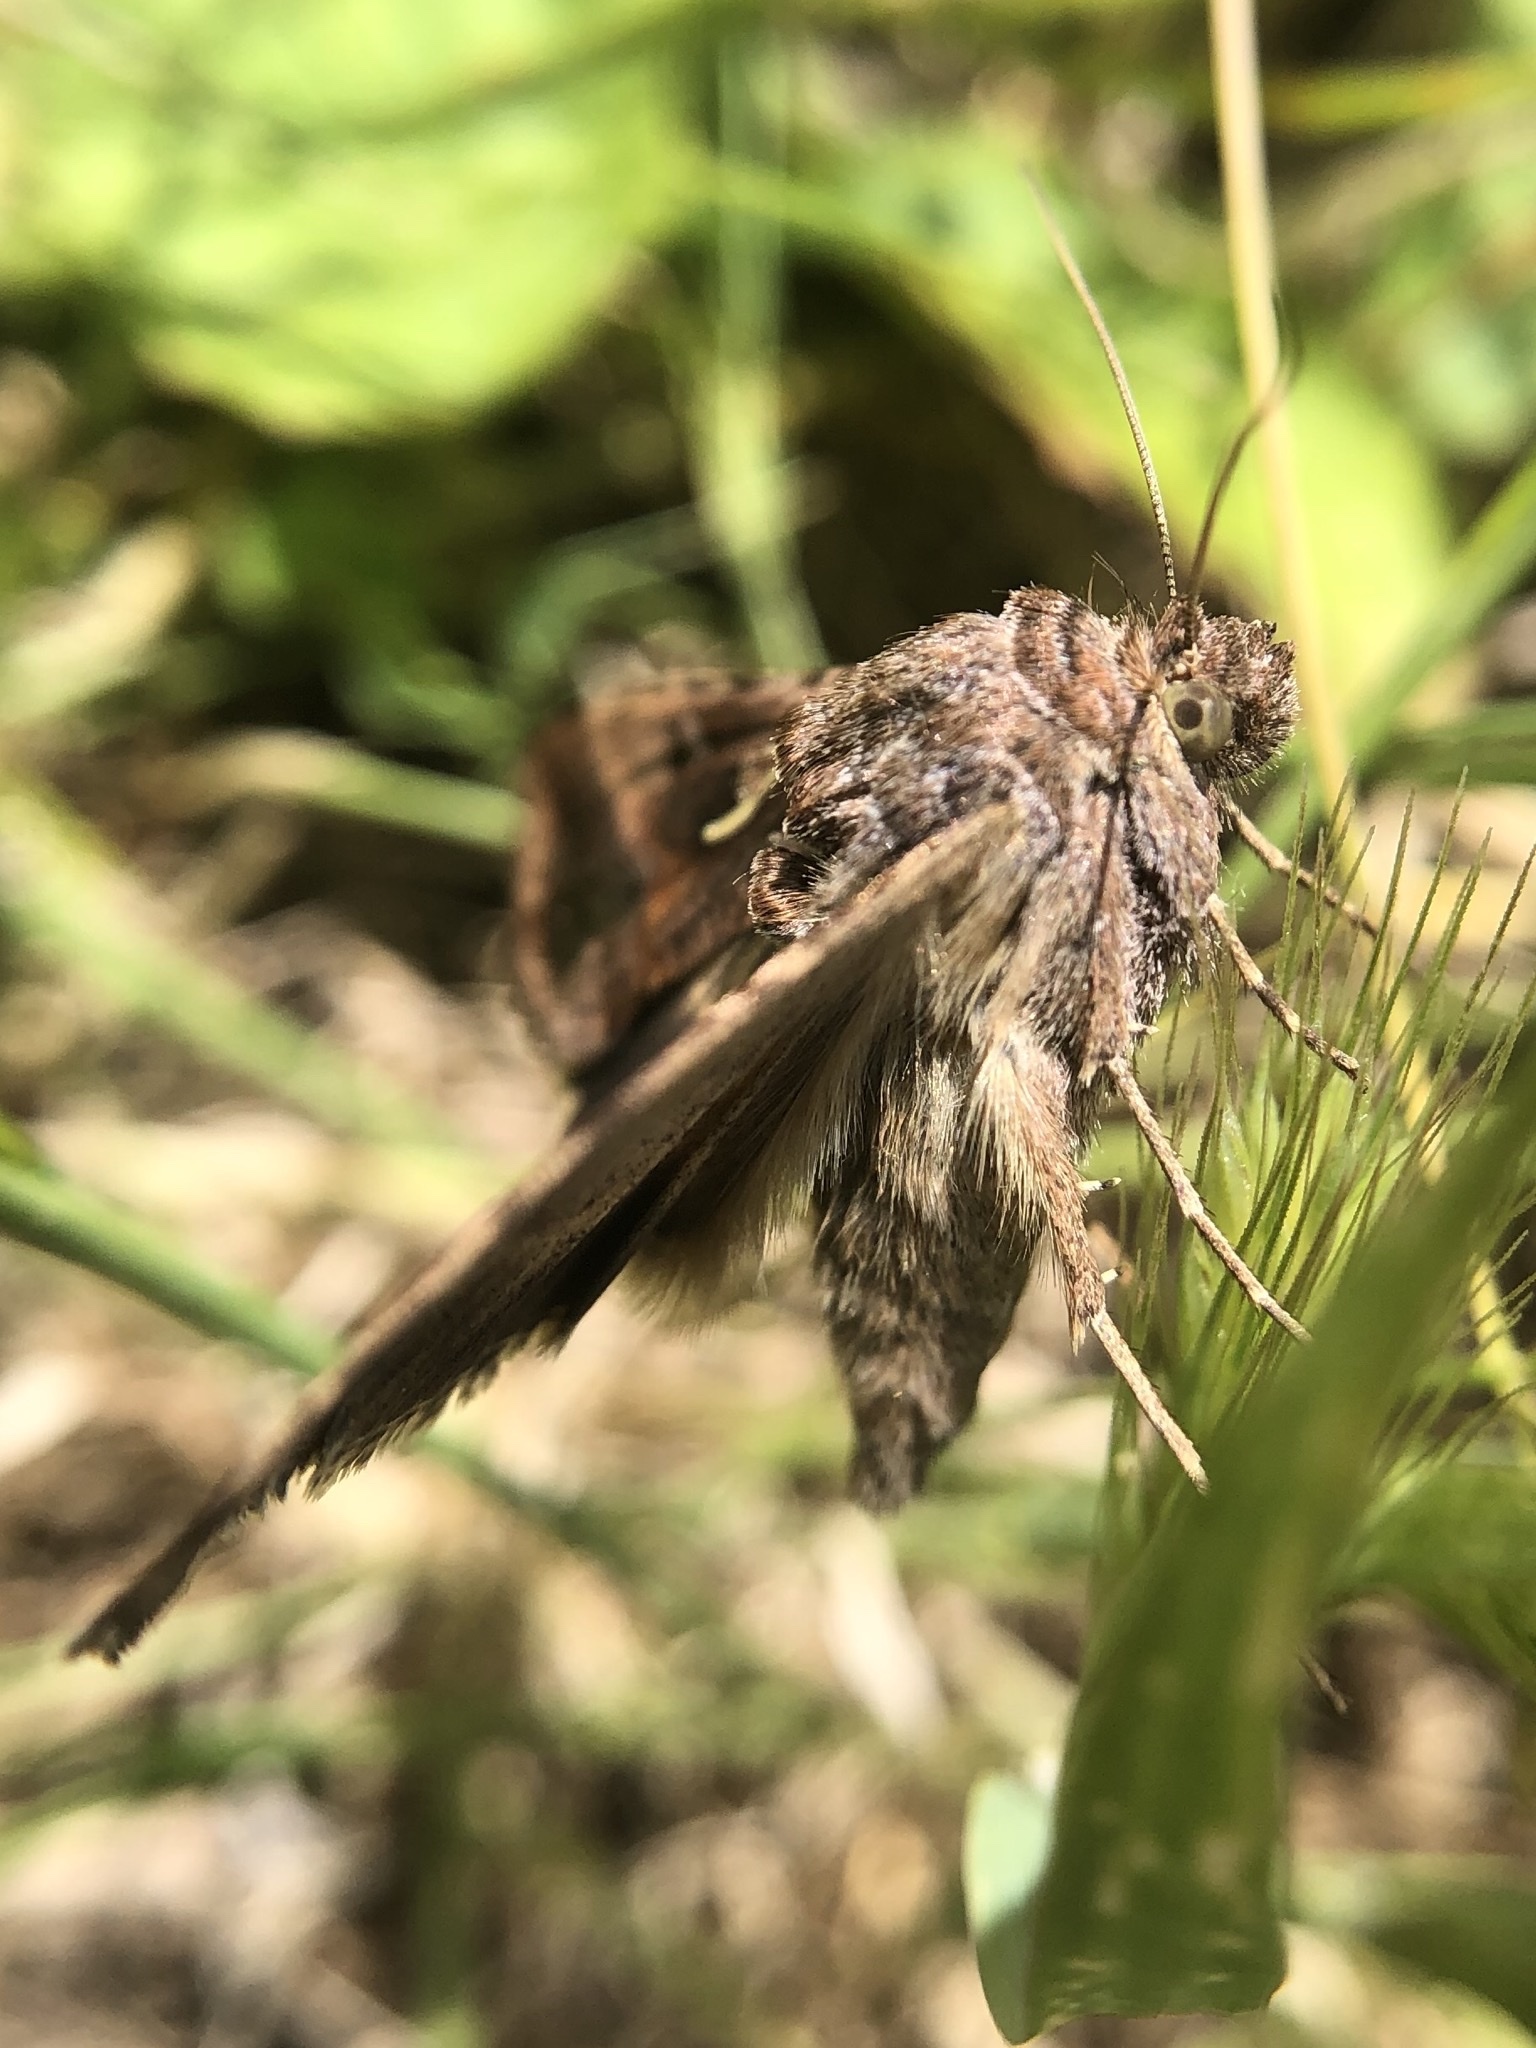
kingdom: Animalia
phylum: Arthropoda
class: Insecta
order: Lepidoptera
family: Noctuidae
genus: Autographa
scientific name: Autographa gamma
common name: Silver y
